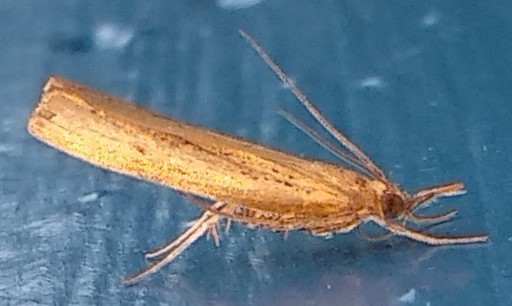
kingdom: Animalia
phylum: Arthropoda
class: Insecta
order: Lepidoptera
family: Crambidae
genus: Fissicrambus
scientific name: Fissicrambus mutabilis
